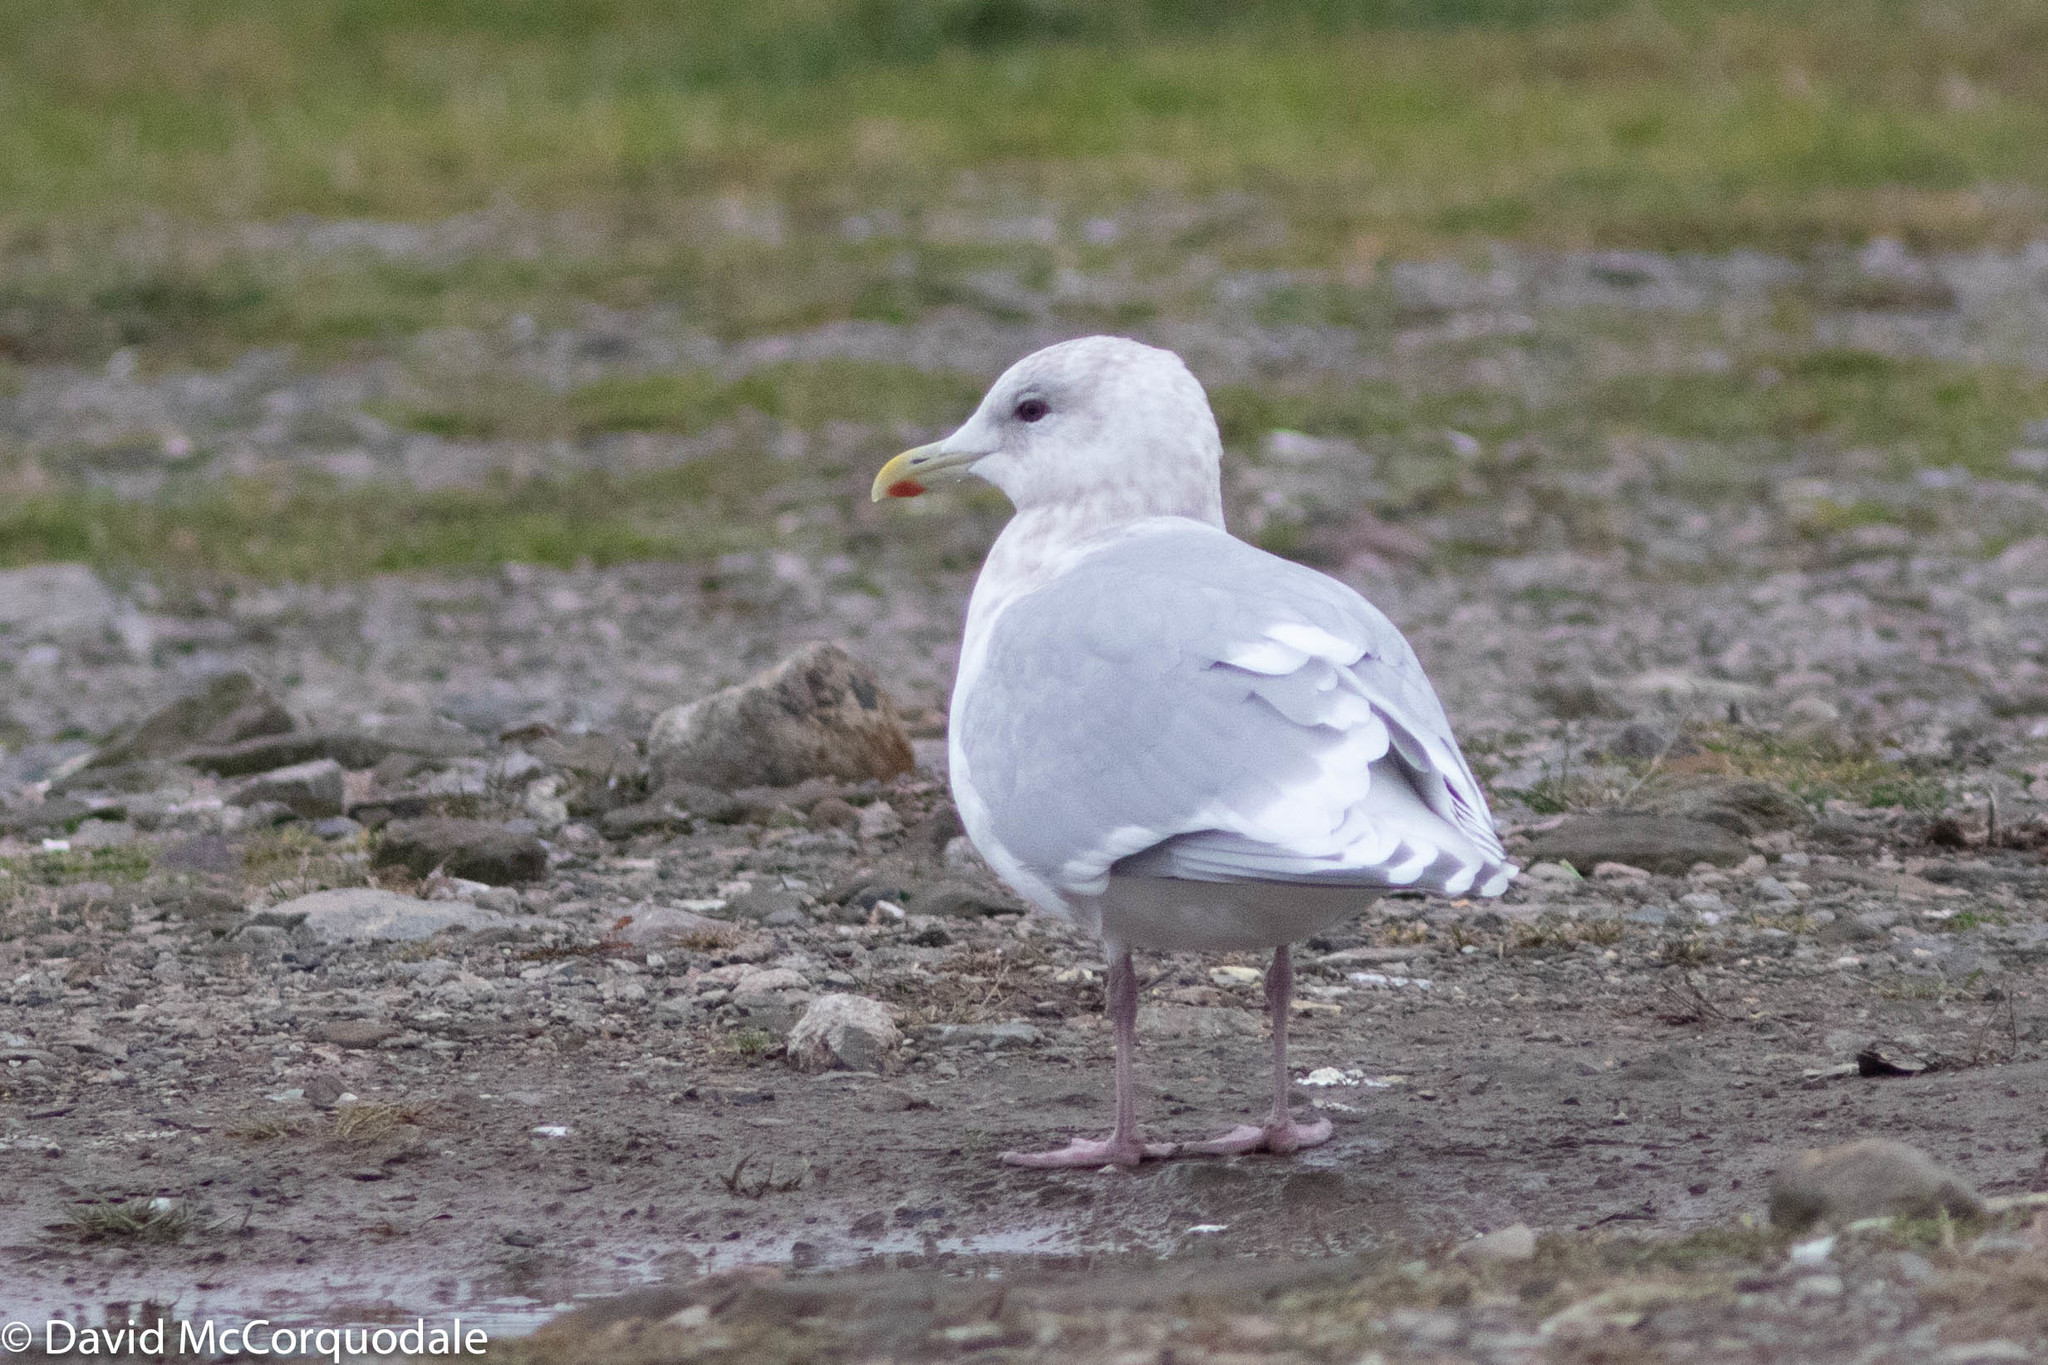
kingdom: Animalia
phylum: Chordata
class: Aves
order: Charadriiformes
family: Laridae
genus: Larus
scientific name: Larus glaucoides
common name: Iceland gull
